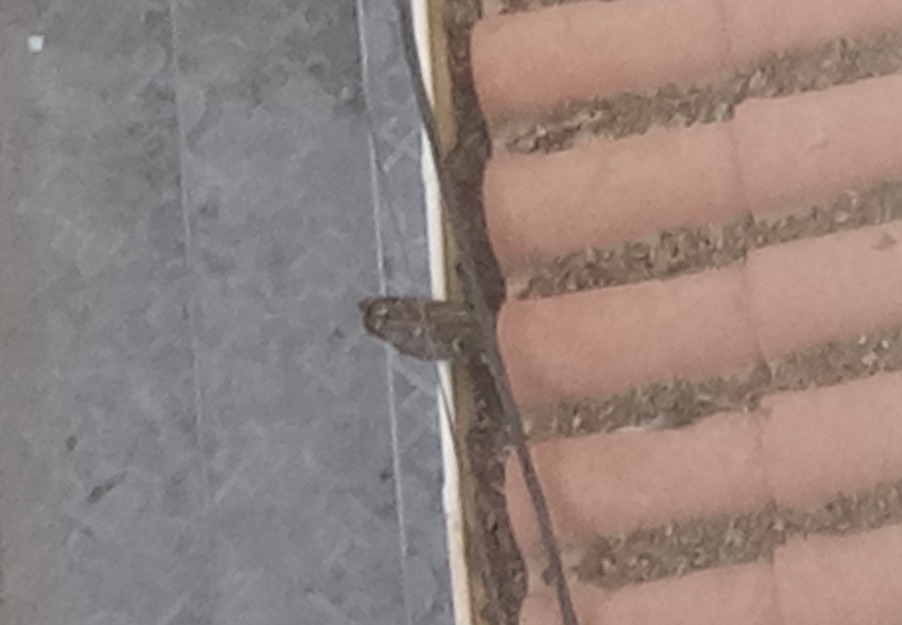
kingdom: Animalia
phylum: Chordata
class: Aves
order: Strigiformes
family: Strigidae
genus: Athene
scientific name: Athene noctua
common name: Little owl
